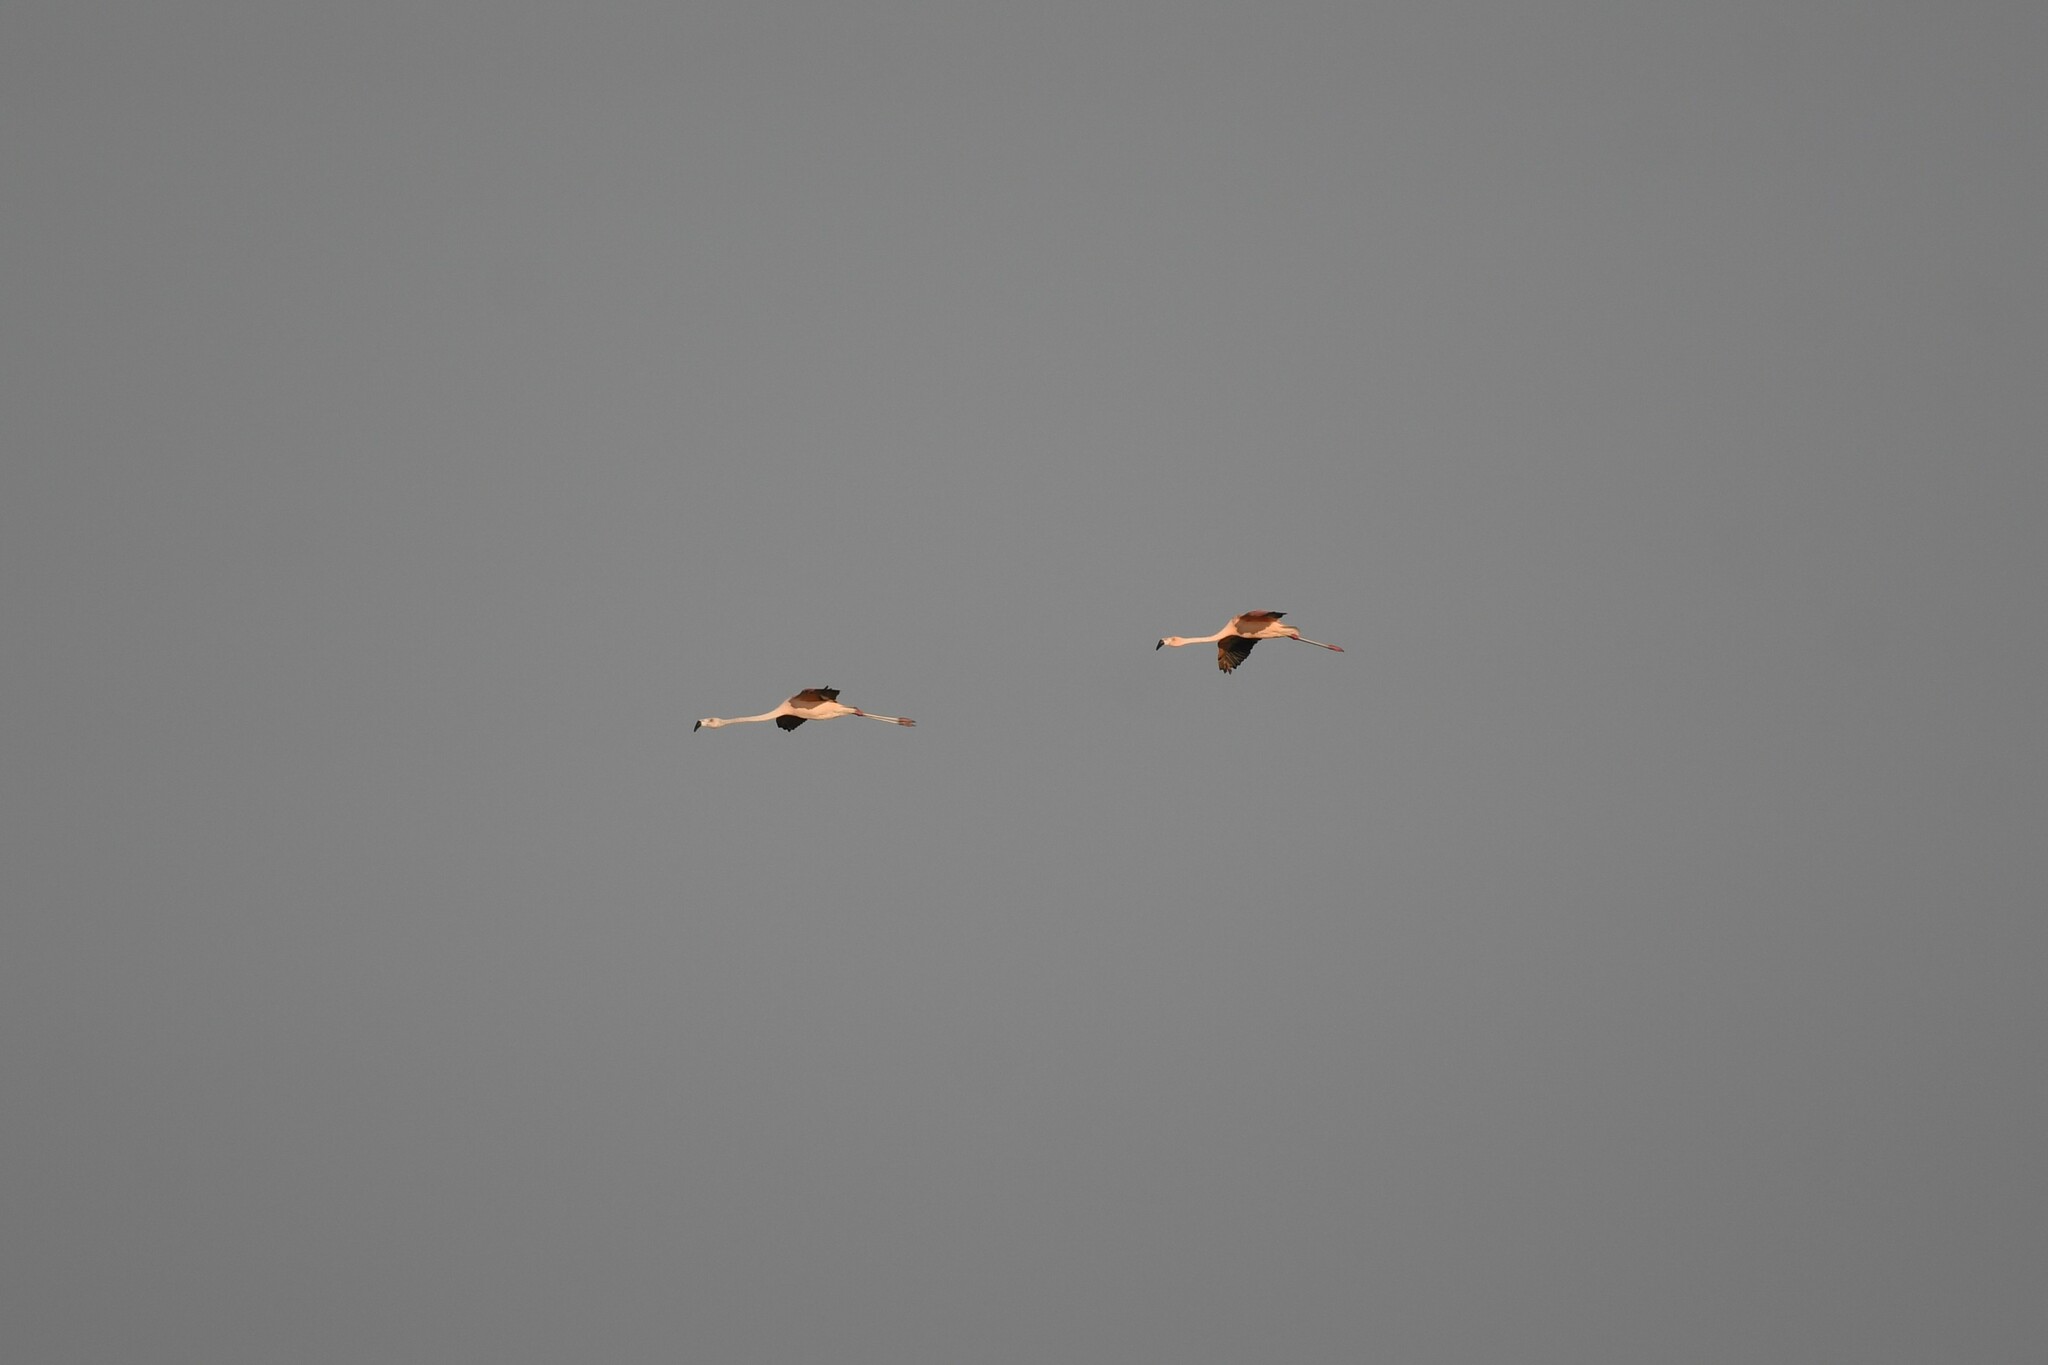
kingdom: Animalia
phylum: Chordata
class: Aves
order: Phoenicopteriformes
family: Phoenicopteridae
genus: Phoenicopterus
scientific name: Phoenicopterus chilensis
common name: Chilean flamingo
